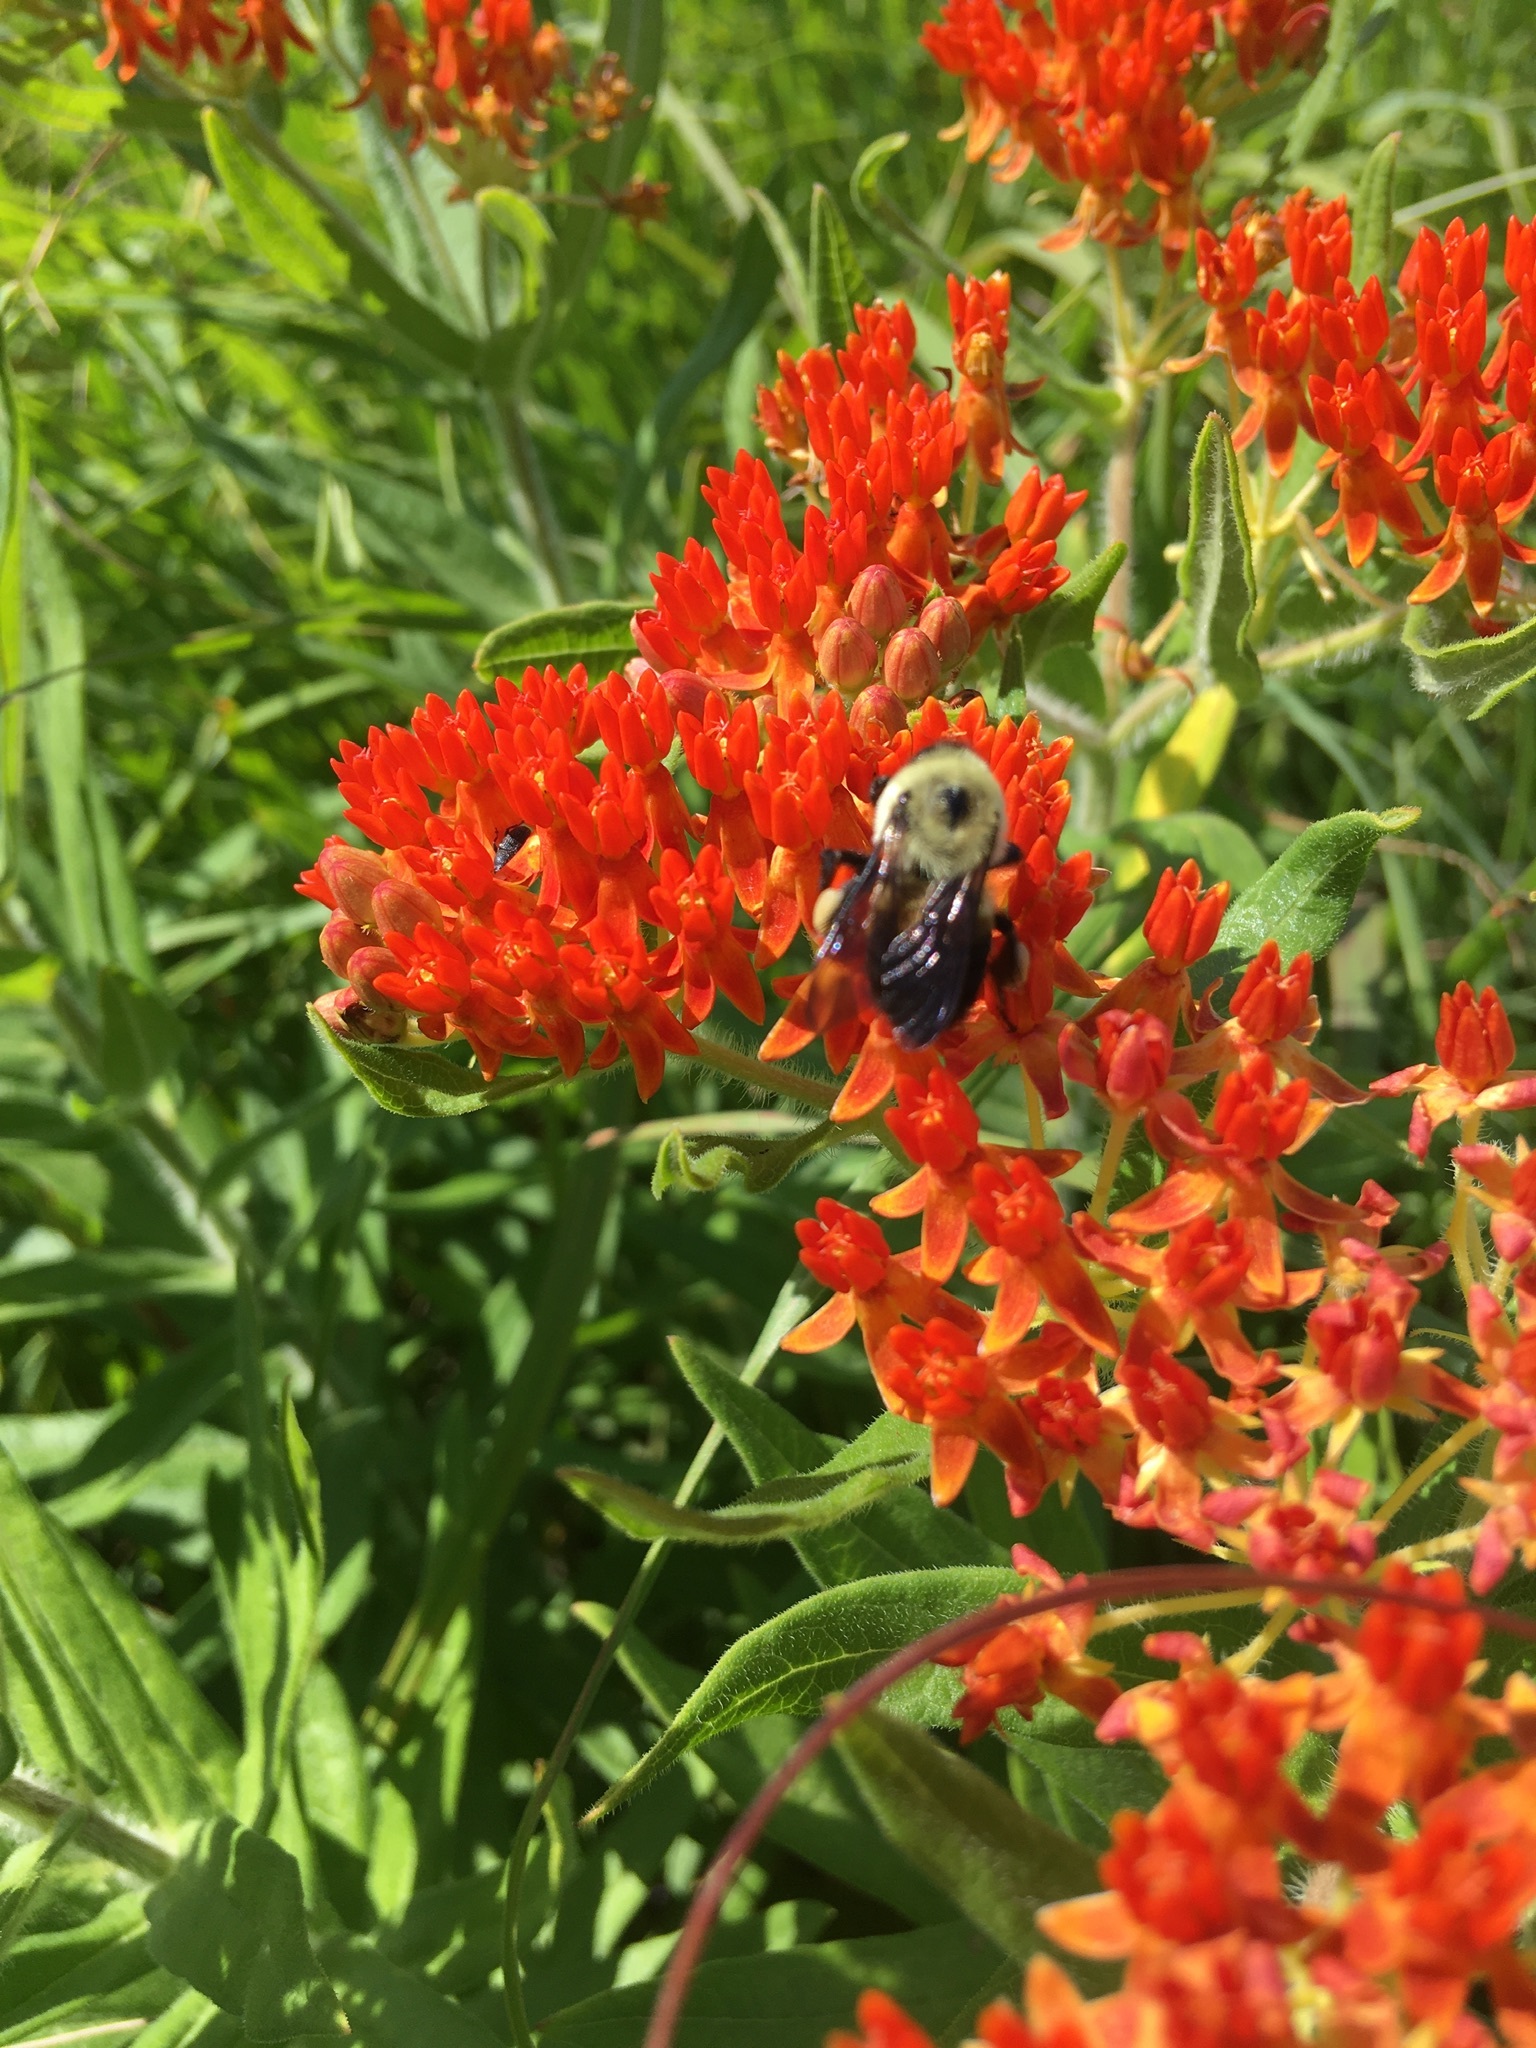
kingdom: Animalia
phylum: Arthropoda
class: Insecta
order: Hymenoptera
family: Apidae
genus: Bombus
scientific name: Bombus griseocollis
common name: Brown-belted bumble bee
